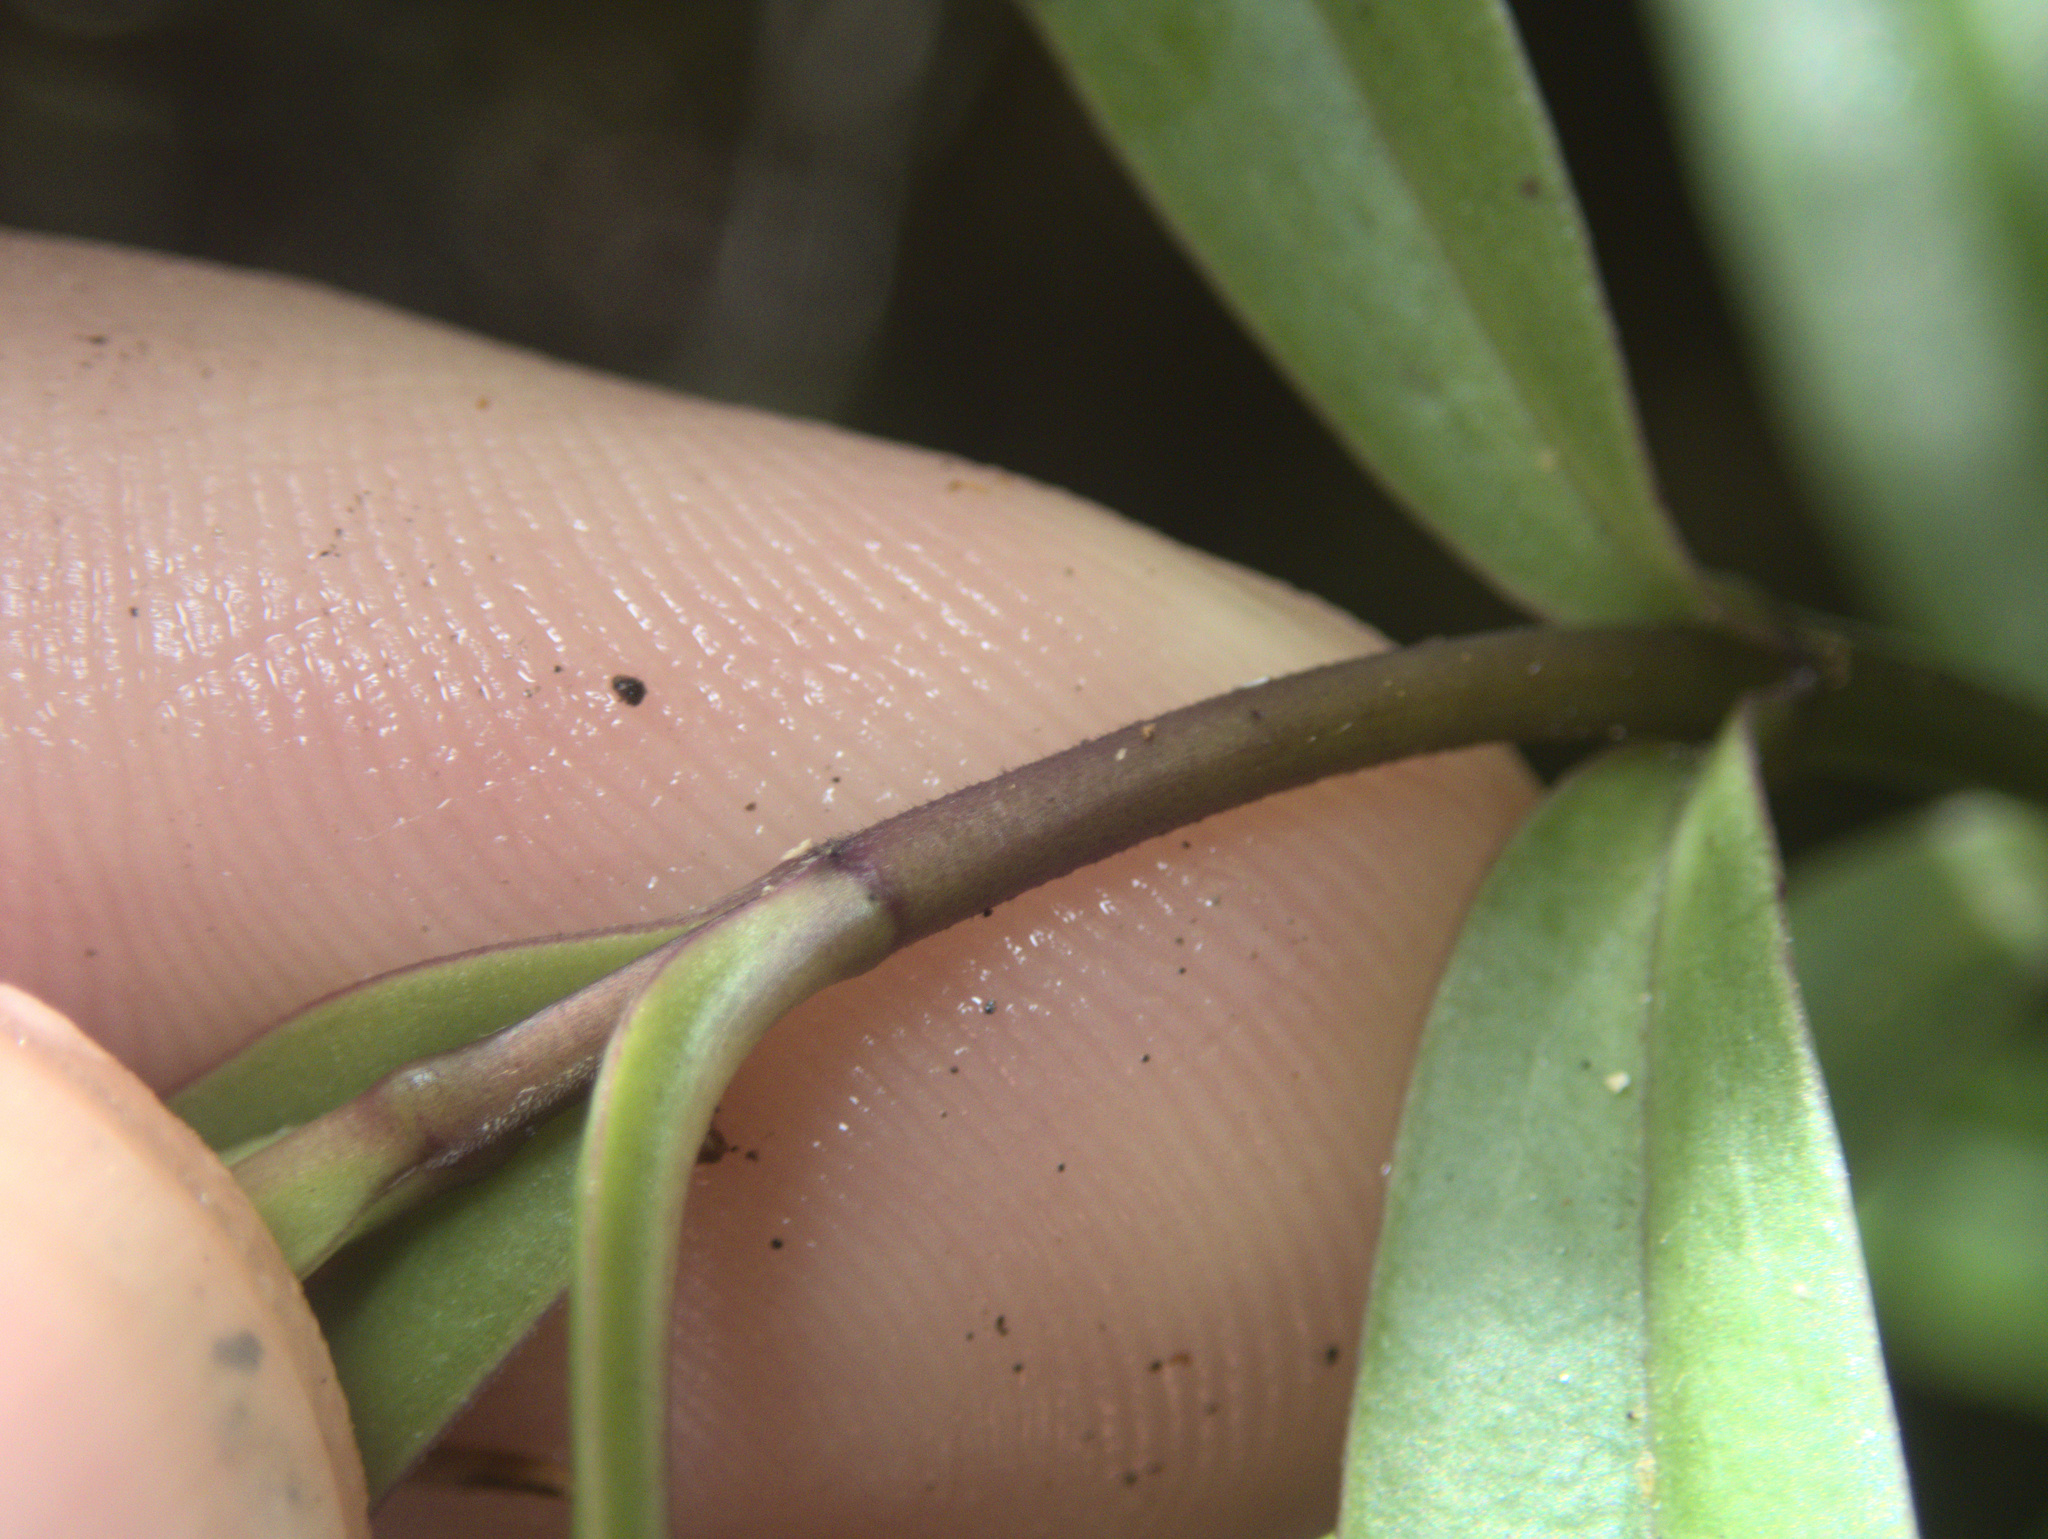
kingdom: Plantae
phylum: Tracheophyta
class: Magnoliopsida
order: Lamiales
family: Plantaginaceae
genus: Veronica
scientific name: Veronica macrocarpa
